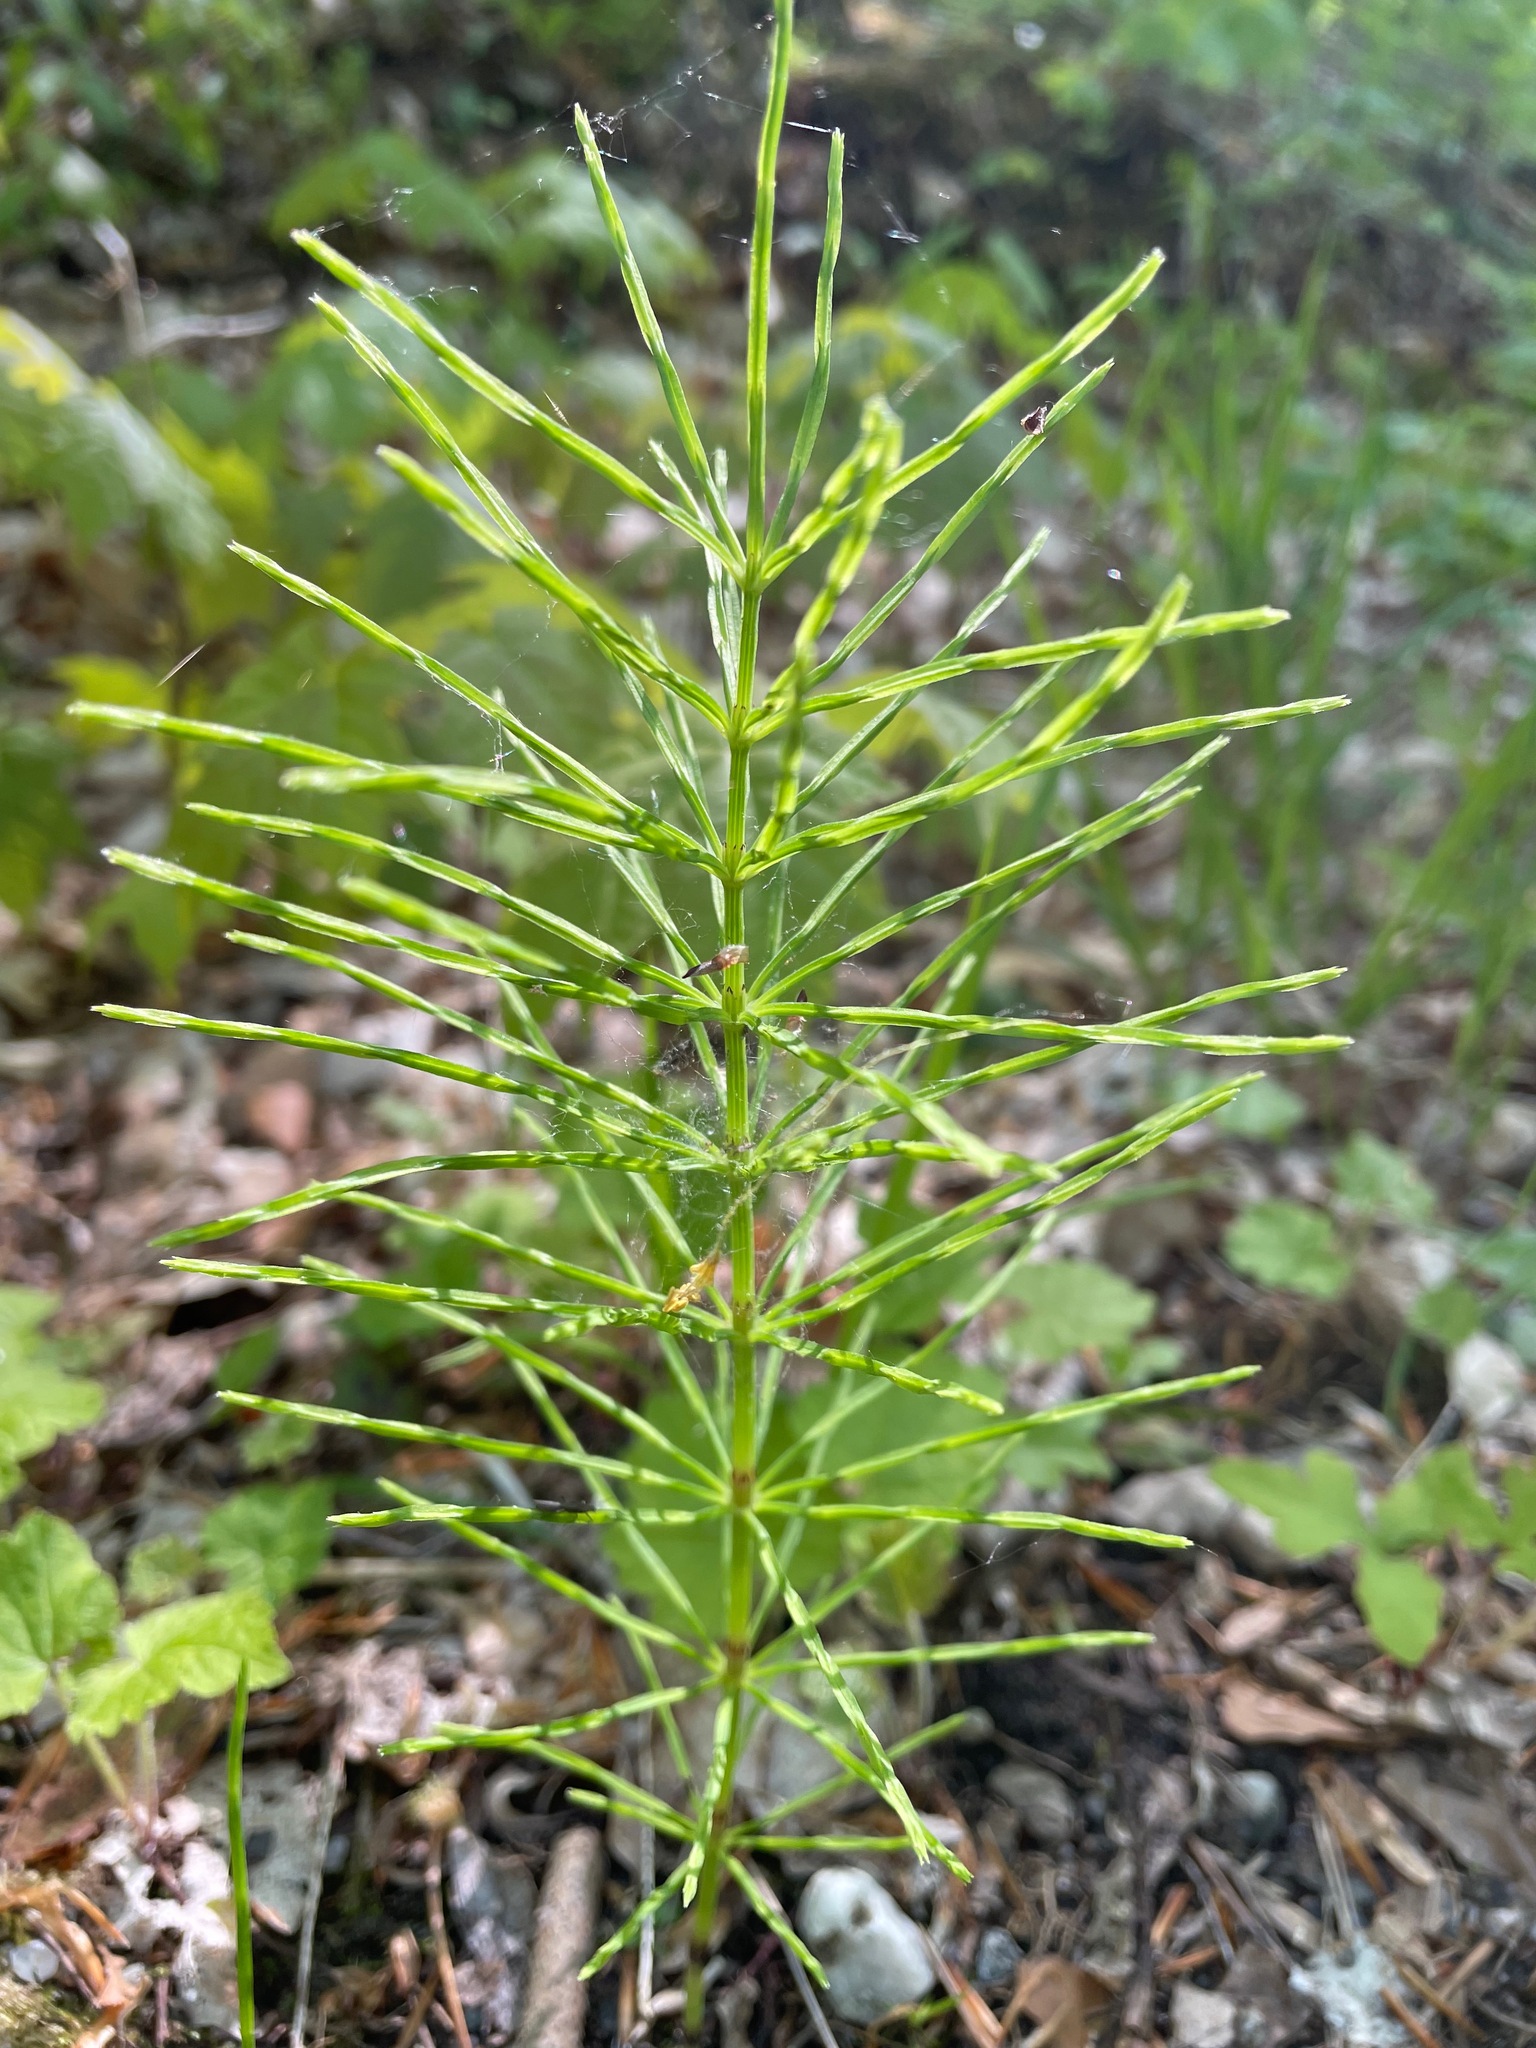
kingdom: Plantae
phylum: Tracheophyta
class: Polypodiopsida
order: Equisetales
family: Equisetaceae
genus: Equisetum
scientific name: Equisetum arvense
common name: Field horsetail
